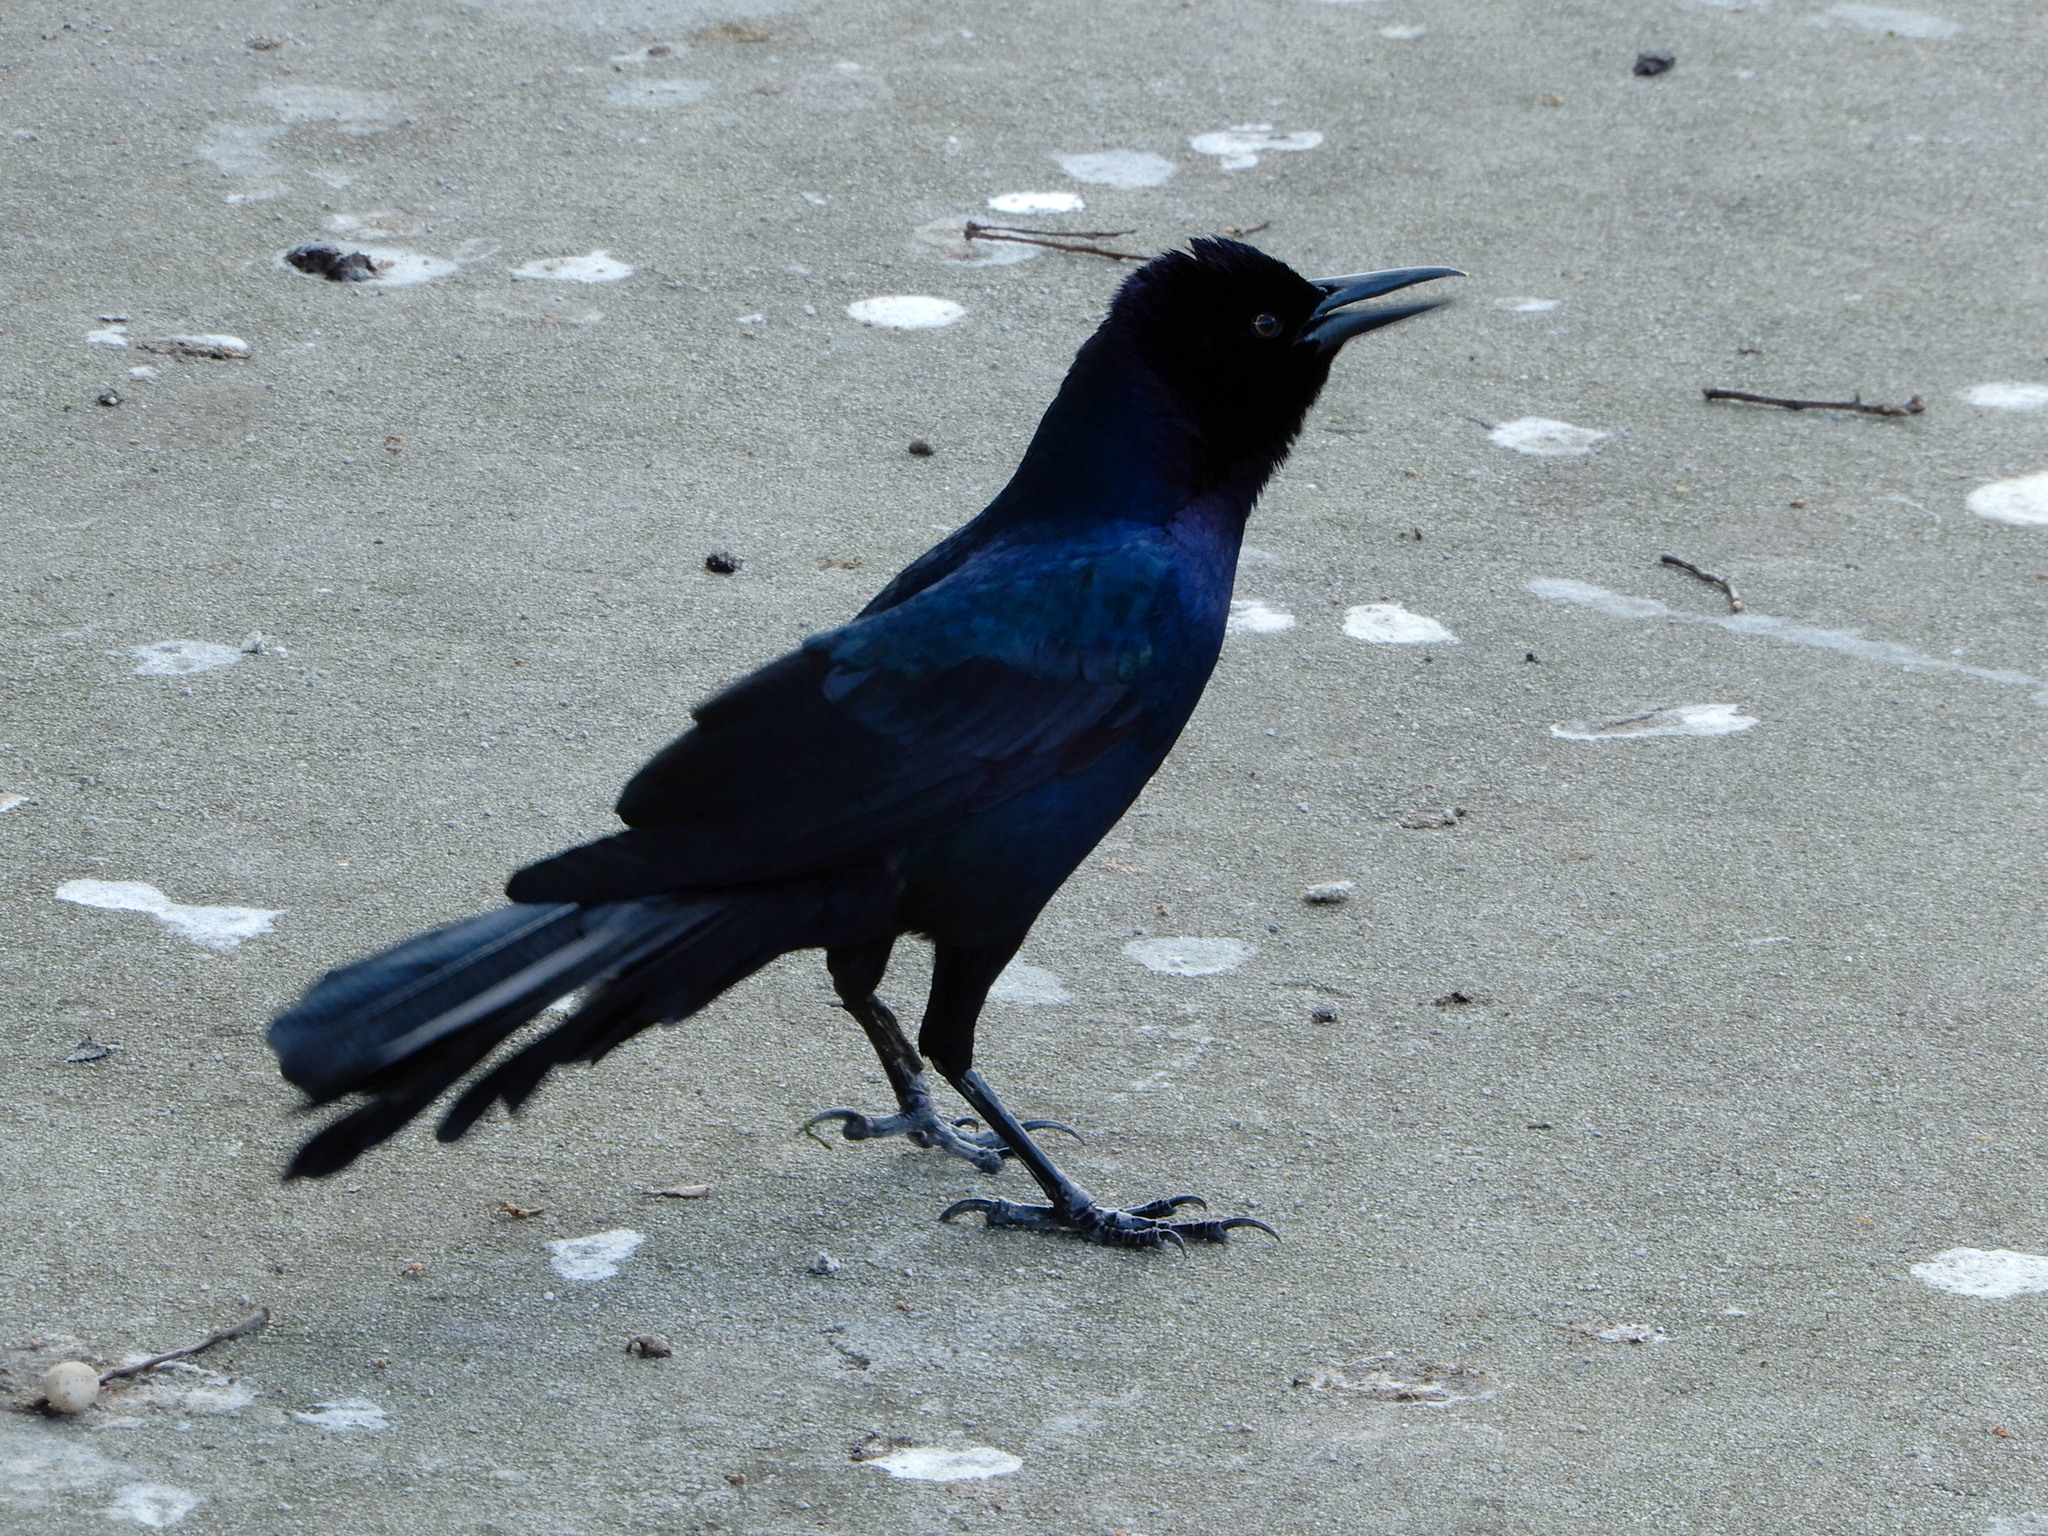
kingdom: Animalia
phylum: Chordata
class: Aves
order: Passeriformes
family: Icteridae
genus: Quiscalus
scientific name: Quiscalus major
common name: Boat-tailed grackle
